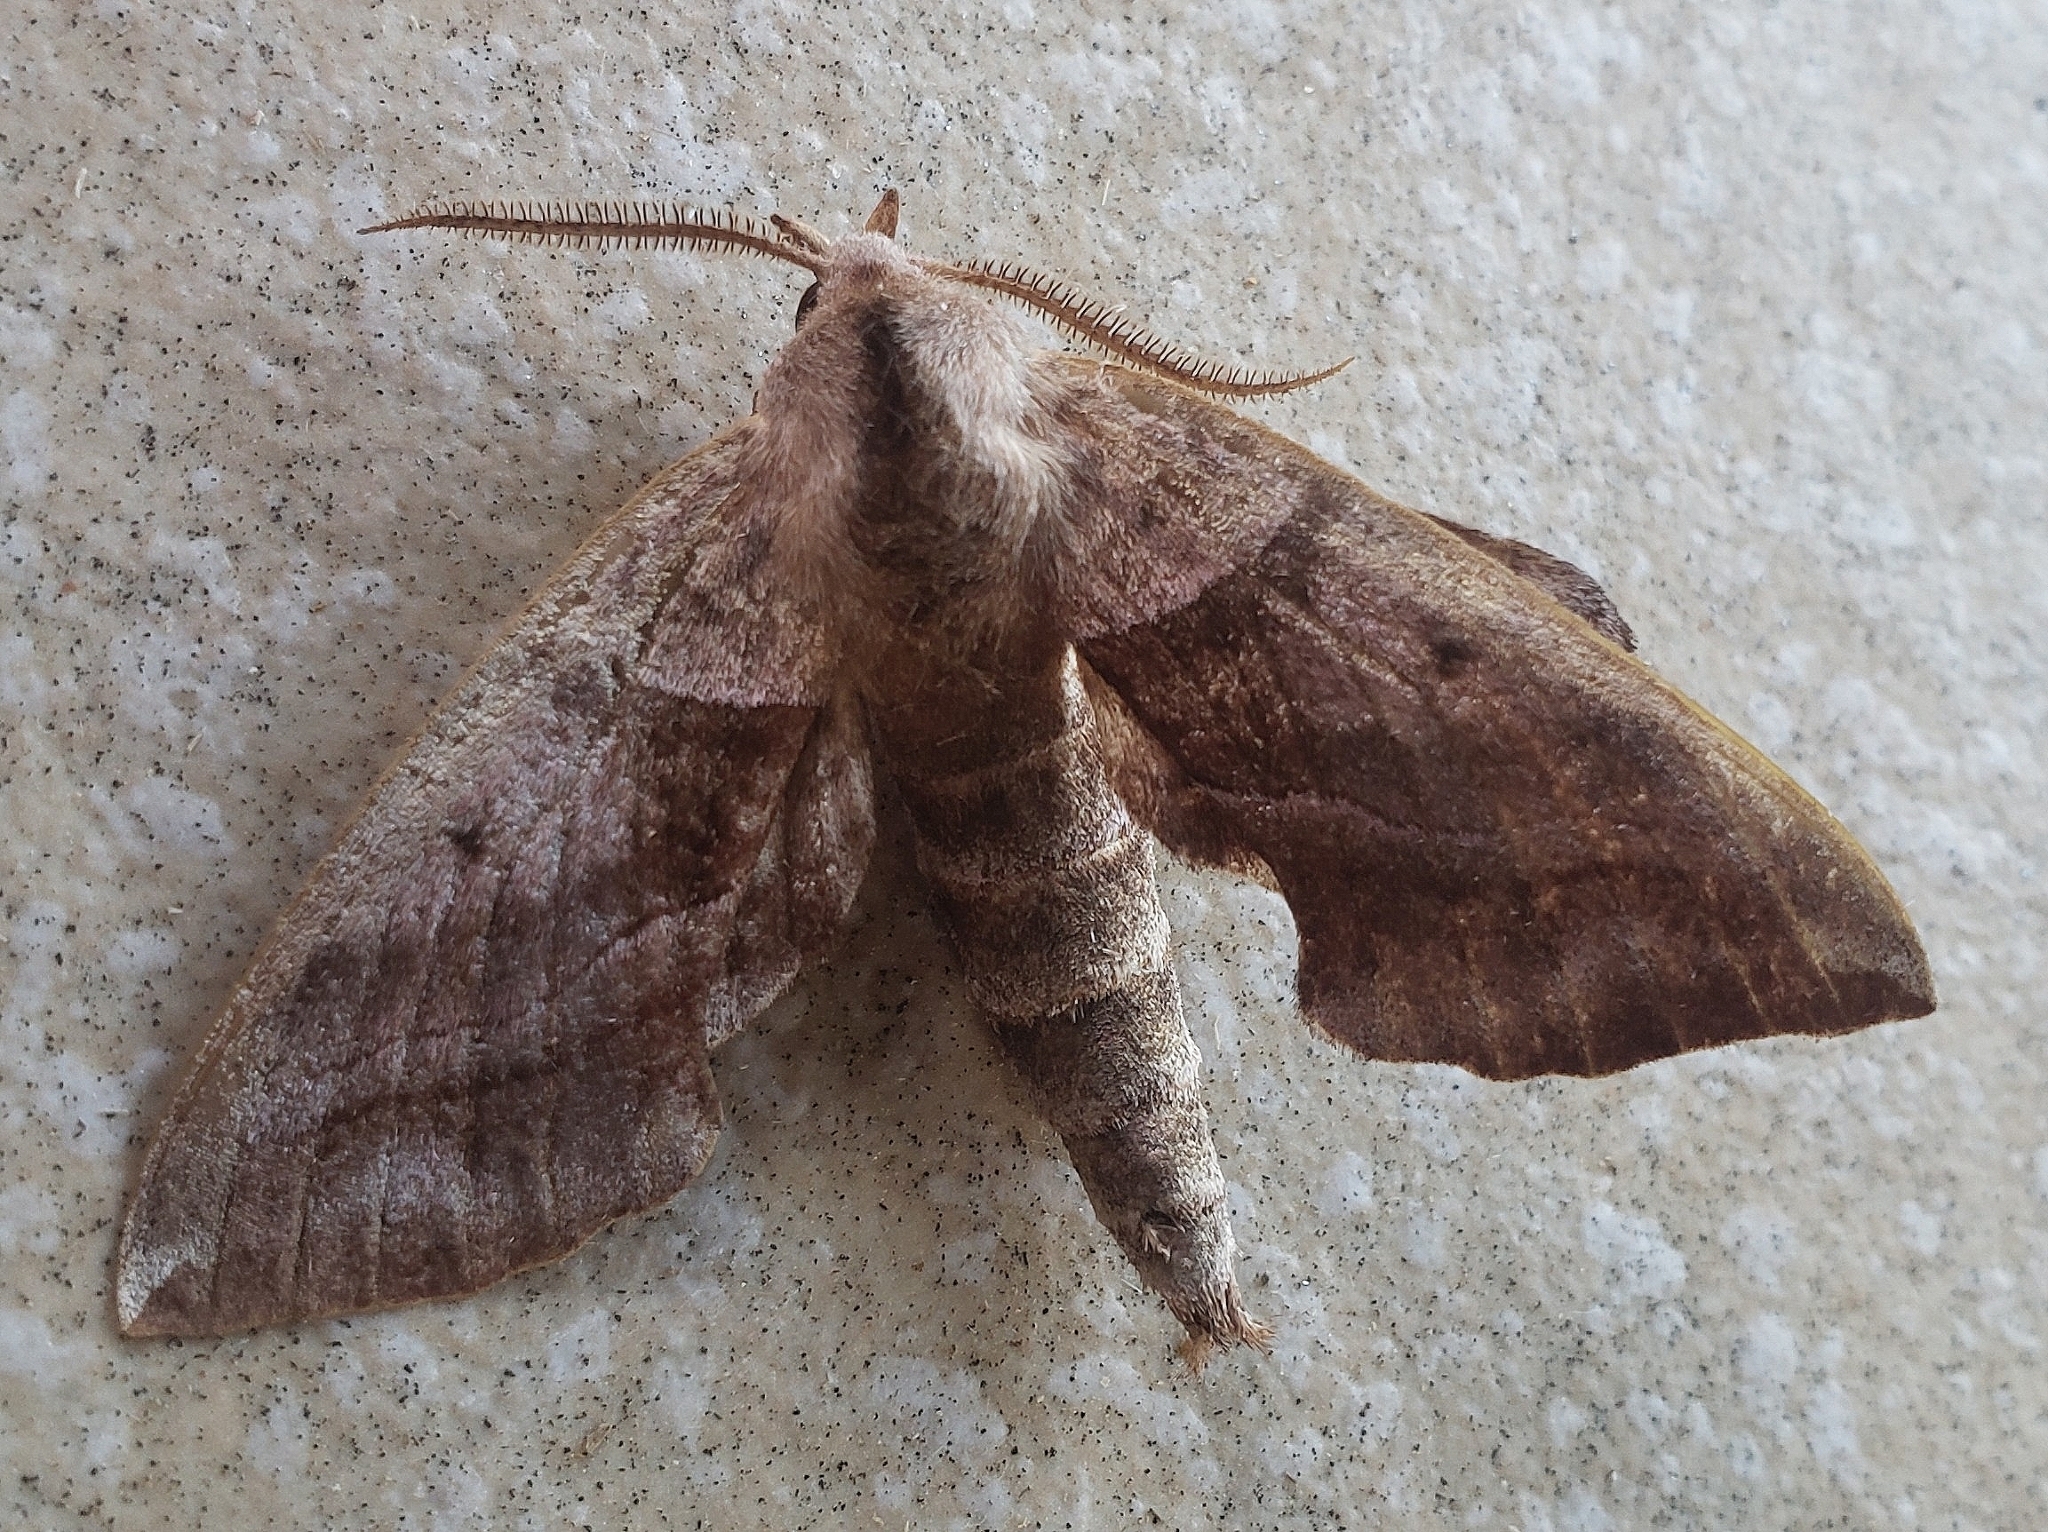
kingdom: Animalia
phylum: Arthropoda
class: Insecta
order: Lepidoptera
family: Sphingidae
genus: Amorpha
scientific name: Amorpha juglandis
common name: Walnut sphinx
